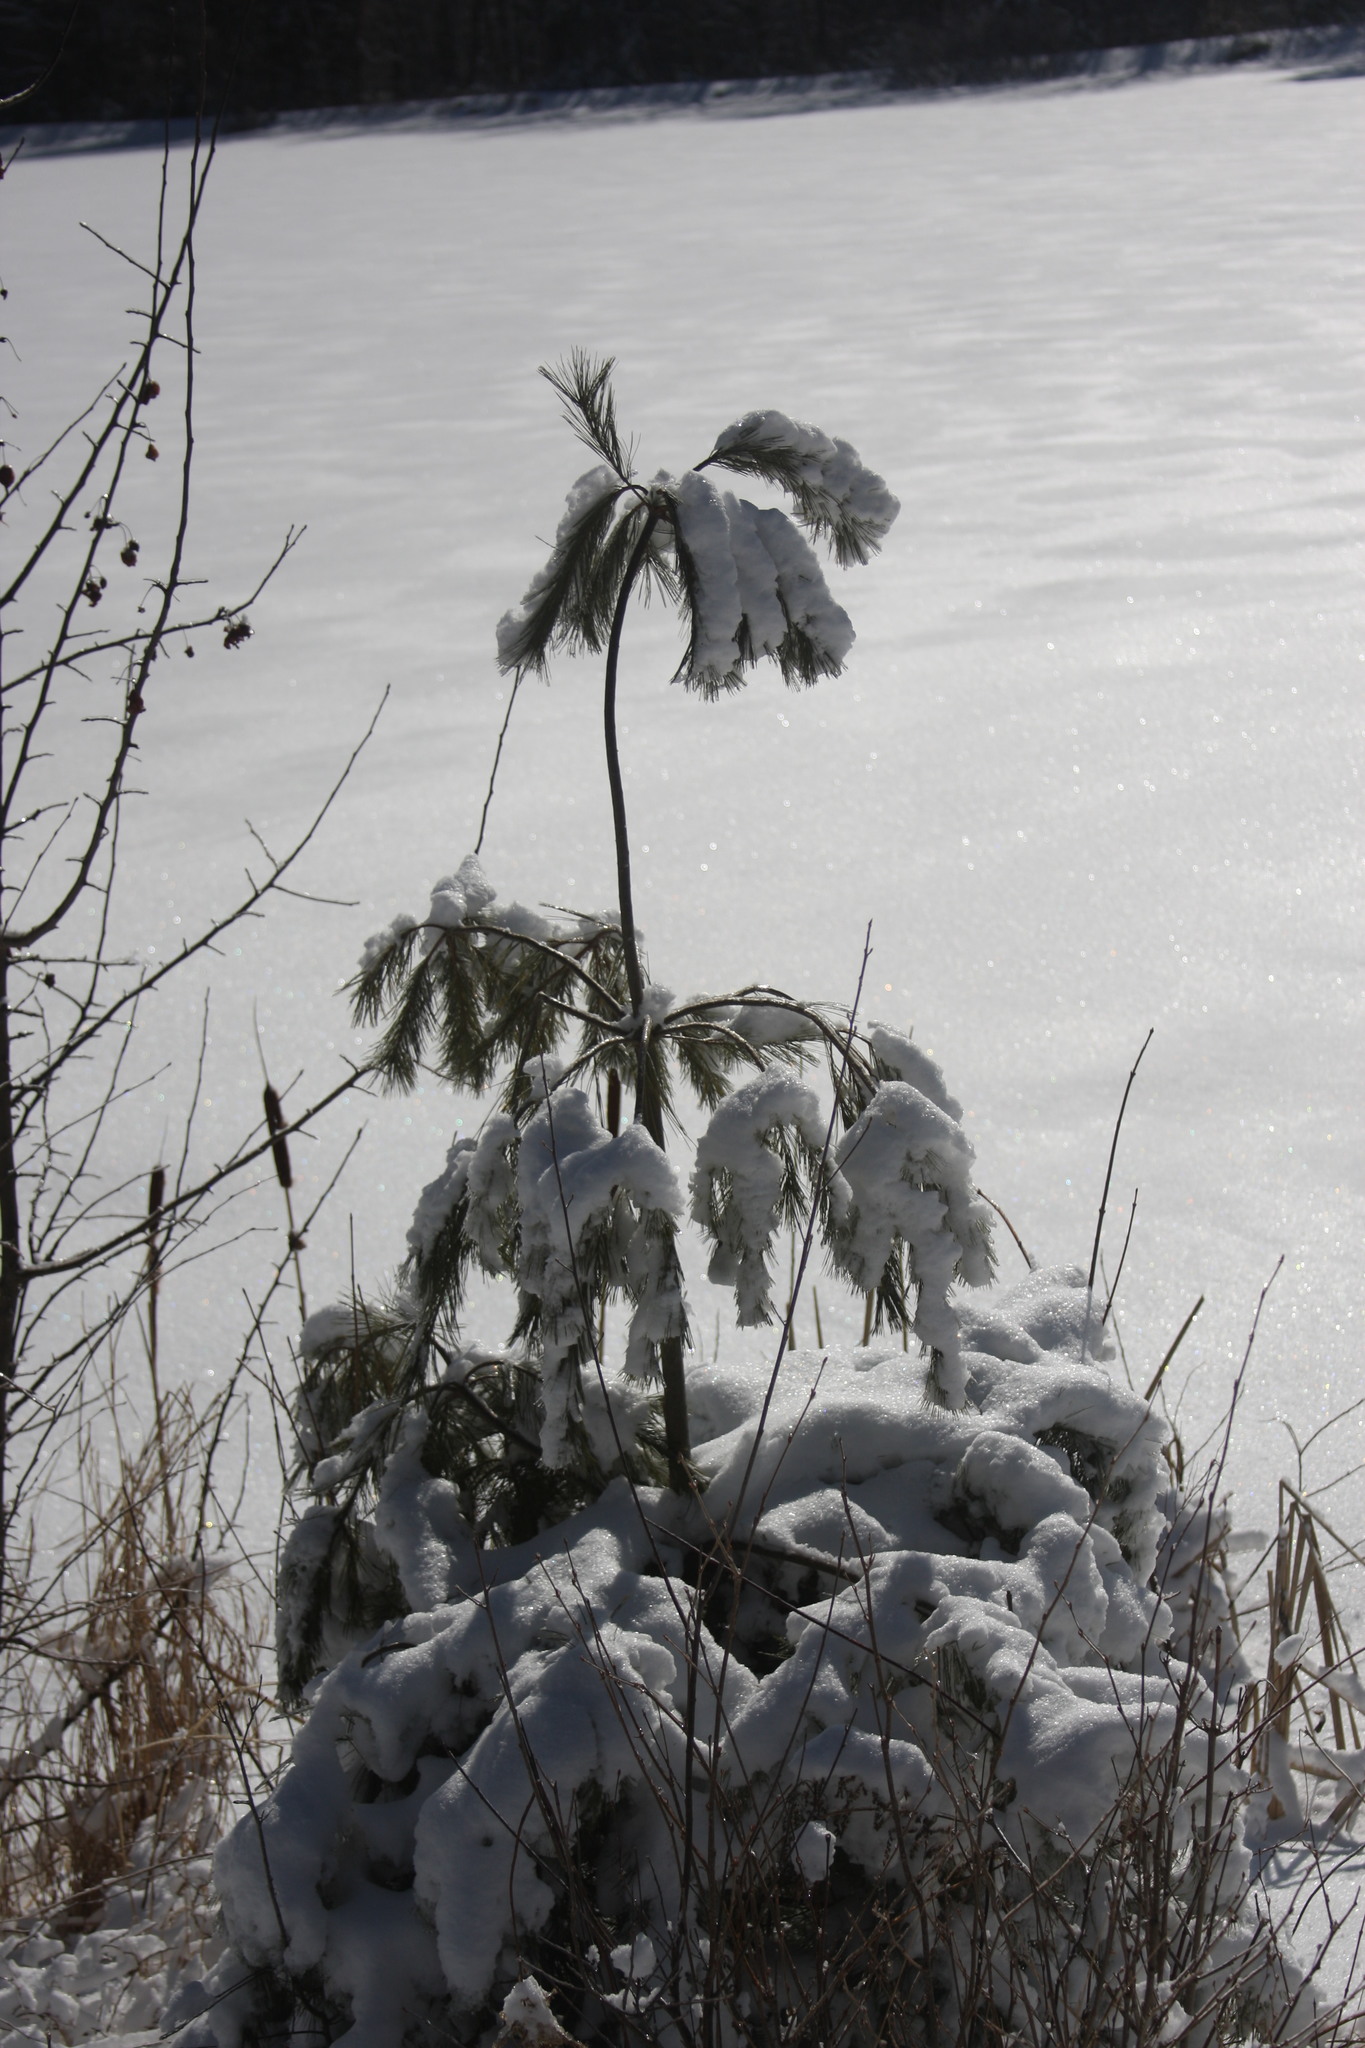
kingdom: Plantae
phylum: Tracheophyta
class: Pinopsida
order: Pinales
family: Pinaceae
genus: Pinus
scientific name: Pinus strobus
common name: Weymouth pine
